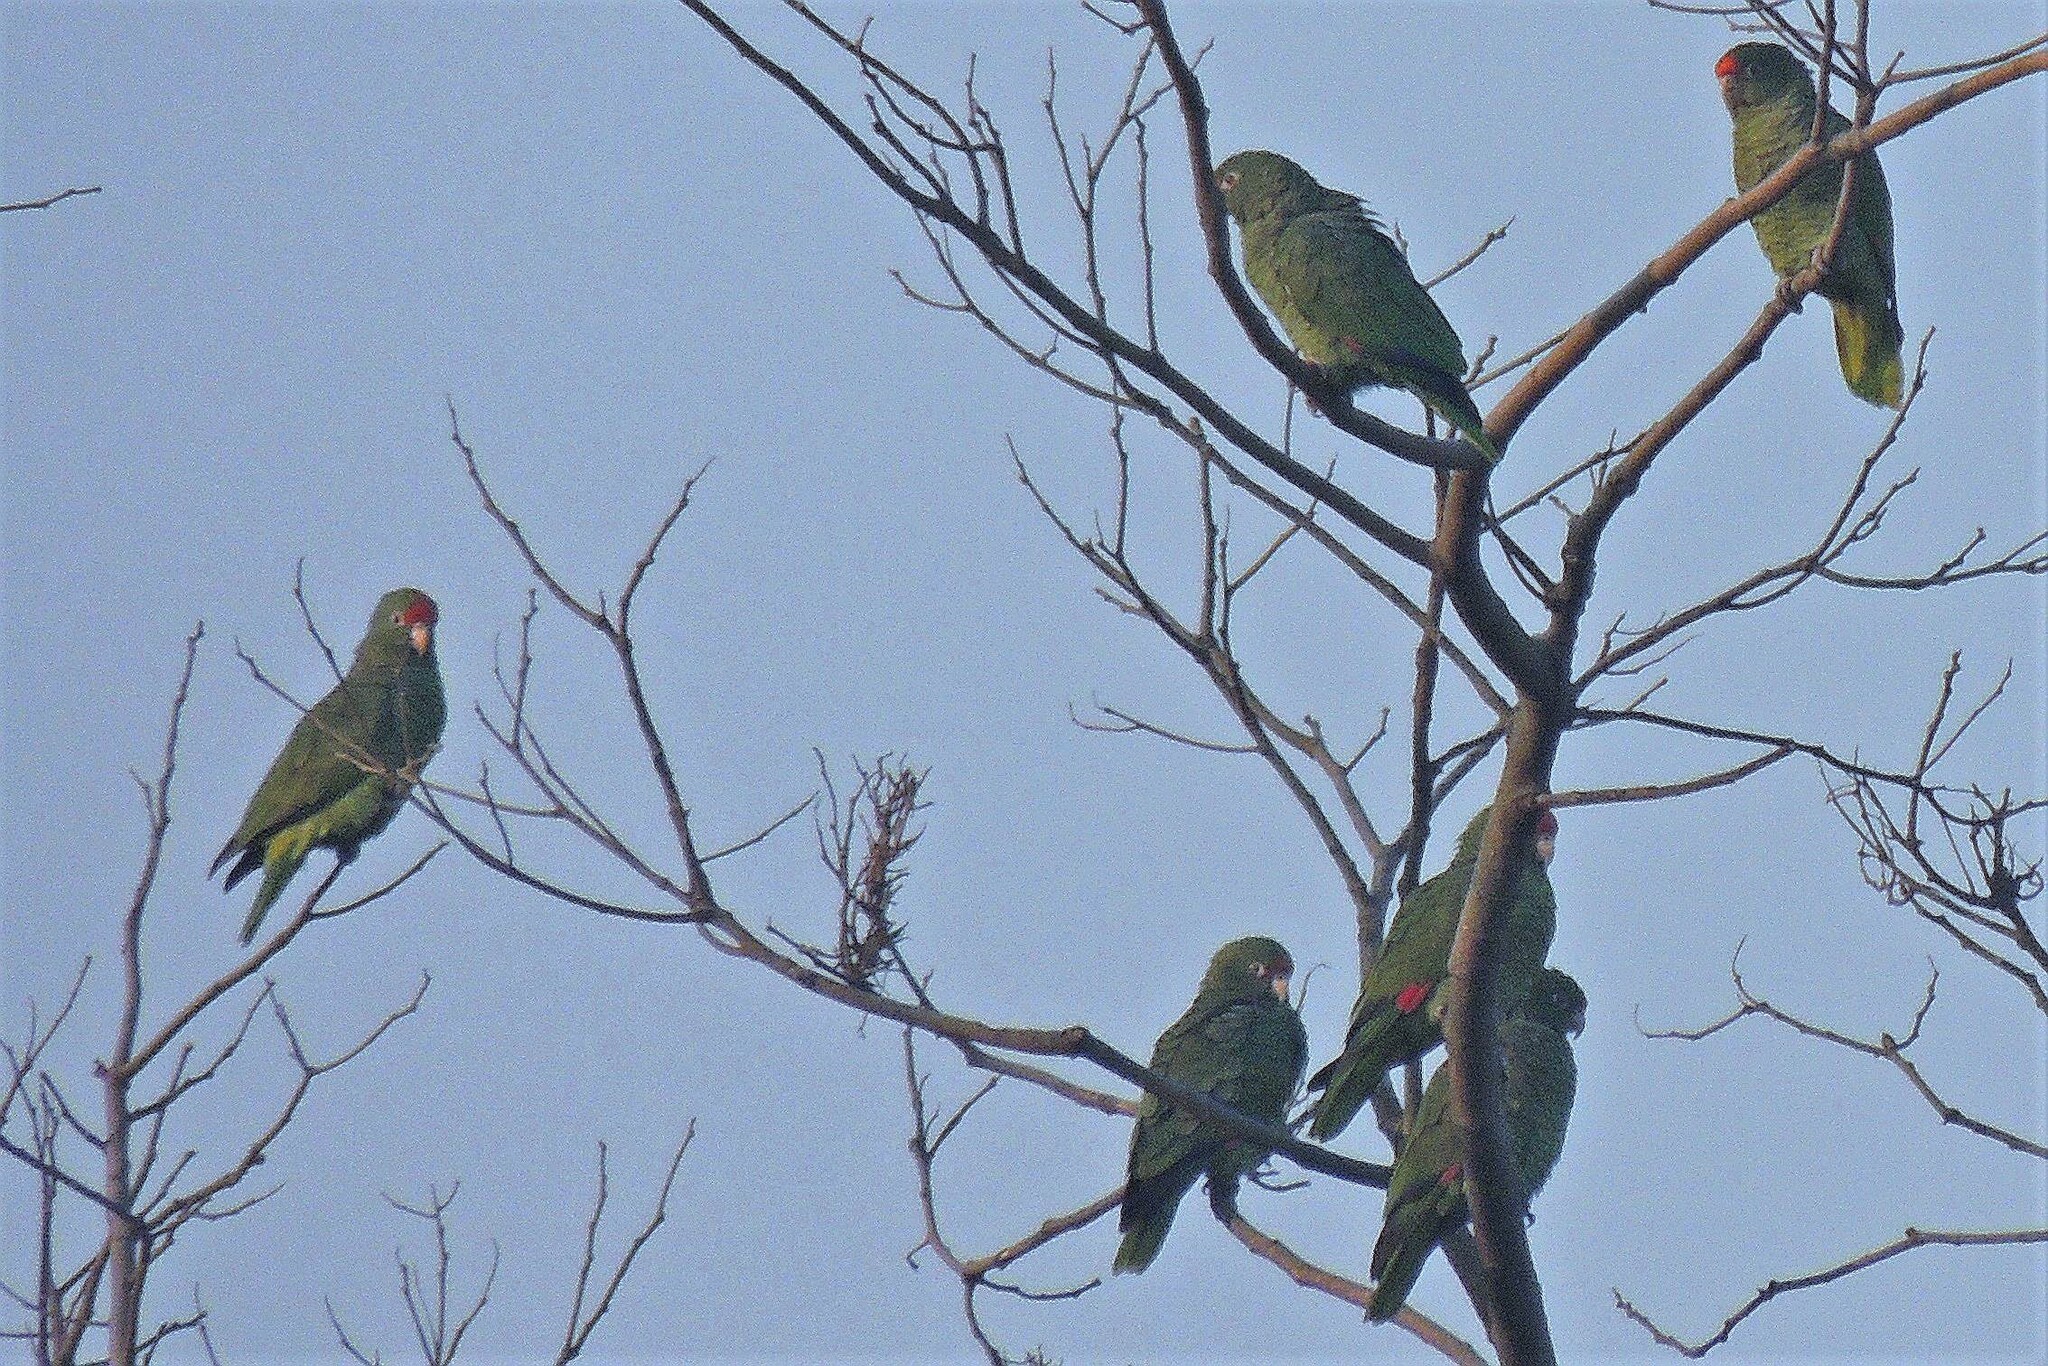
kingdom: Animalia
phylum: Chordata
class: Aves
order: Psittaciformes
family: Psittacidae
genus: Amazona
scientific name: Amazona tucumana
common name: Tucuman amazon
